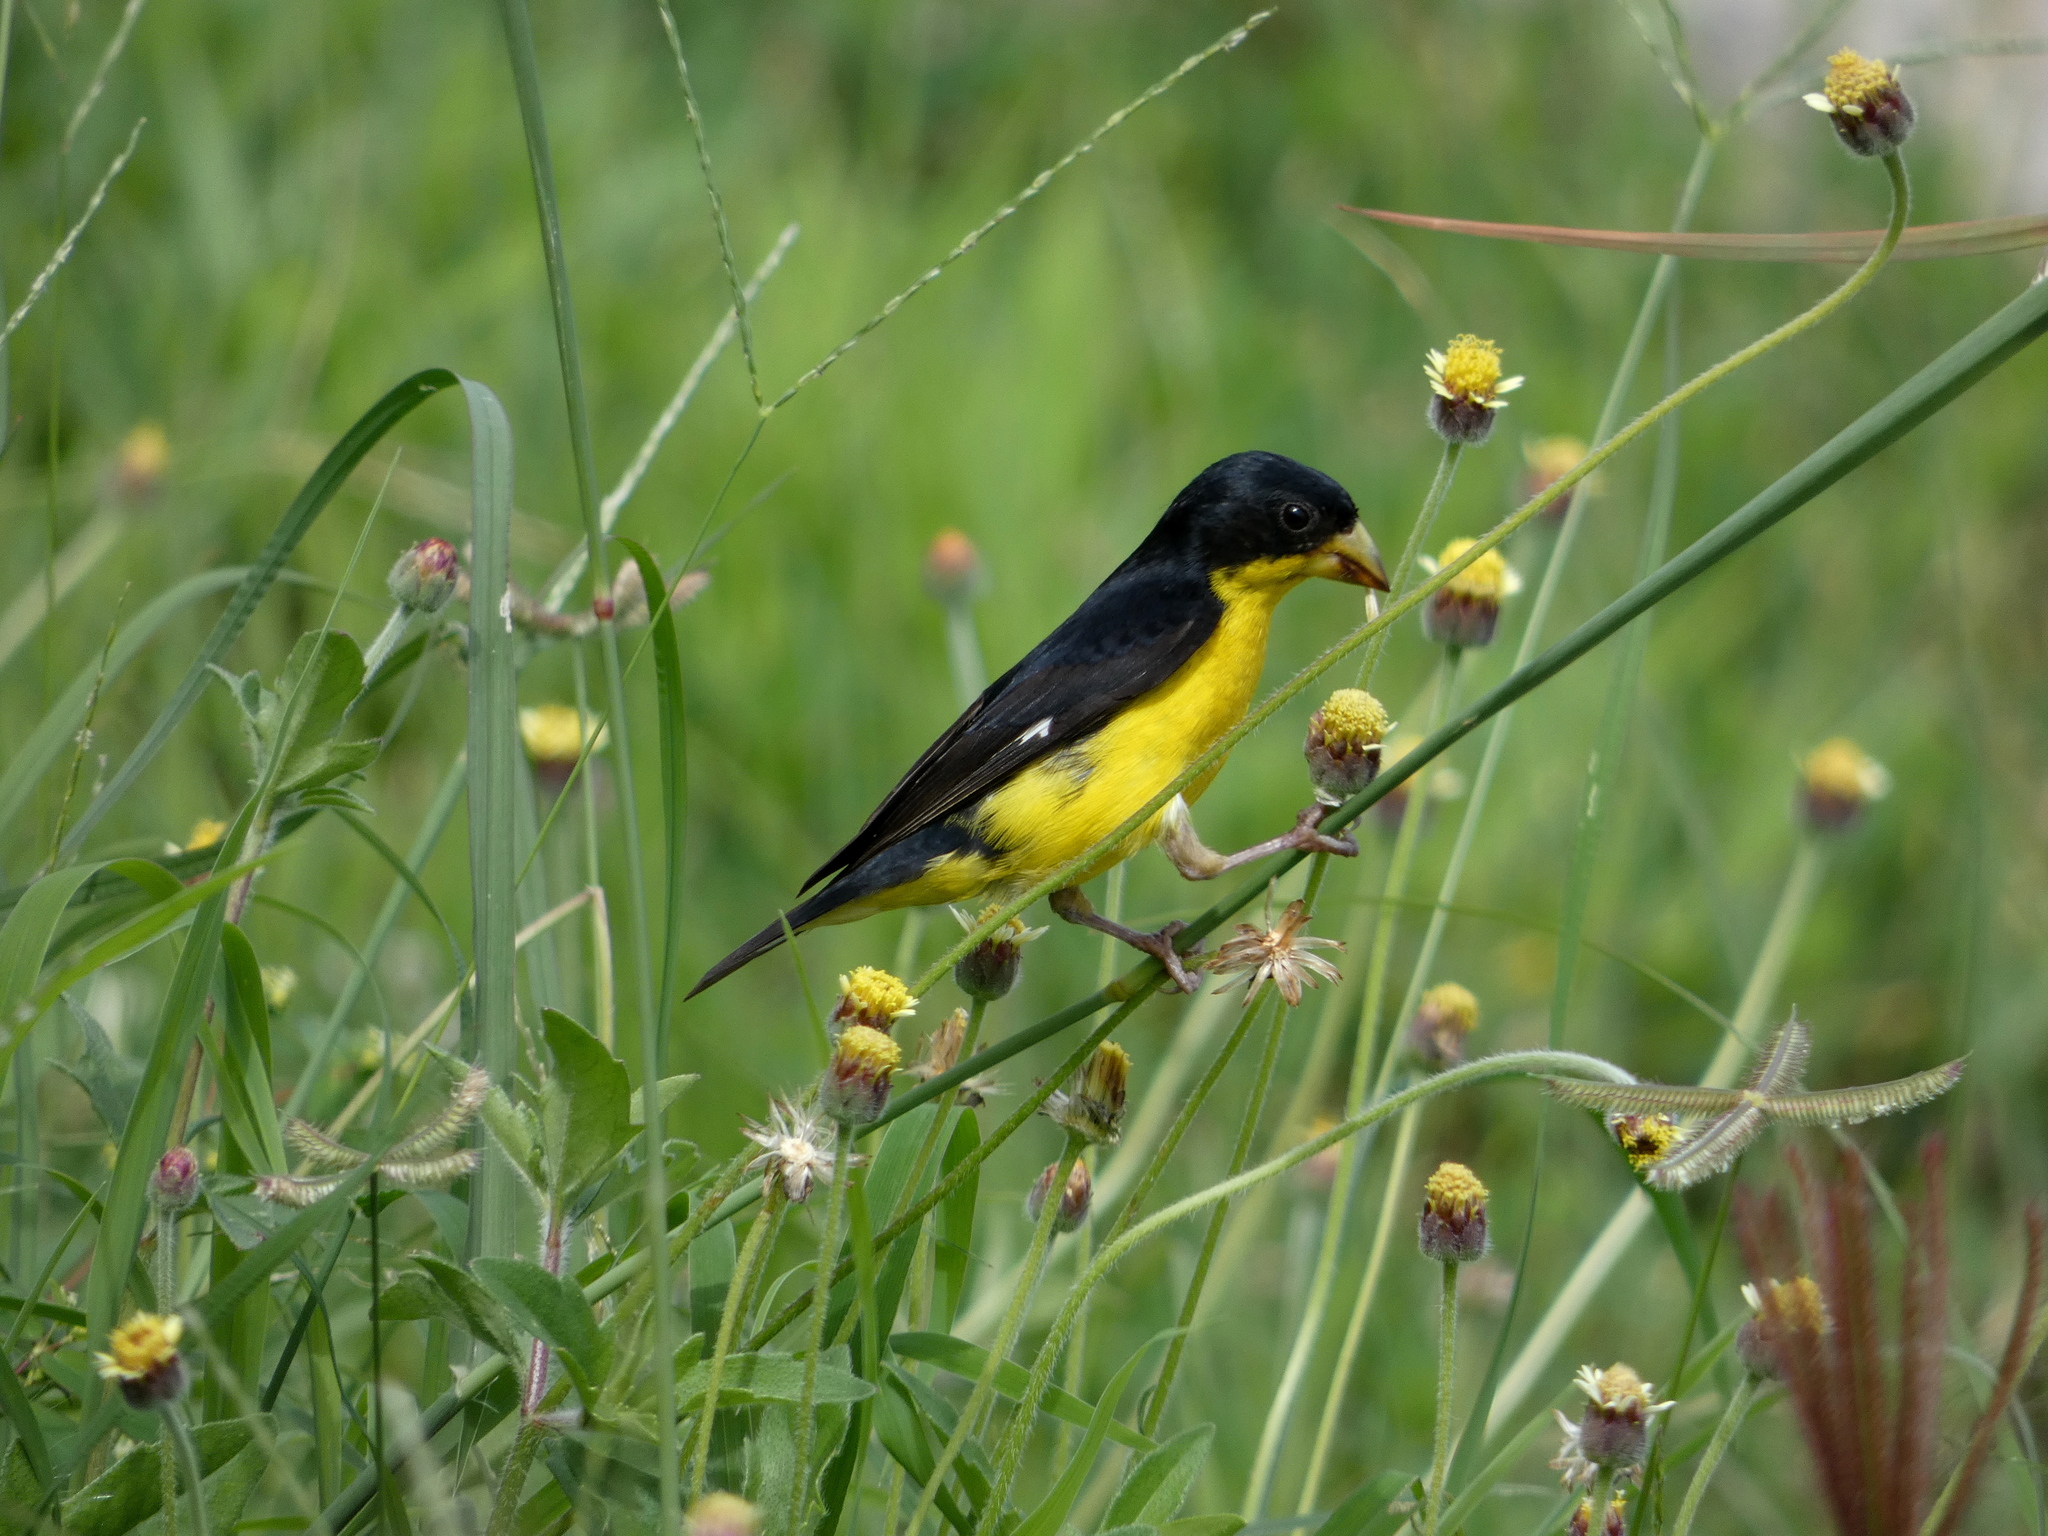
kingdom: Animalia
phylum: Chordata
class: Aves
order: Passeriformes
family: Fringillidae
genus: Spinus
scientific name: Spinus psaltria
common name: Lesser goldfinch
